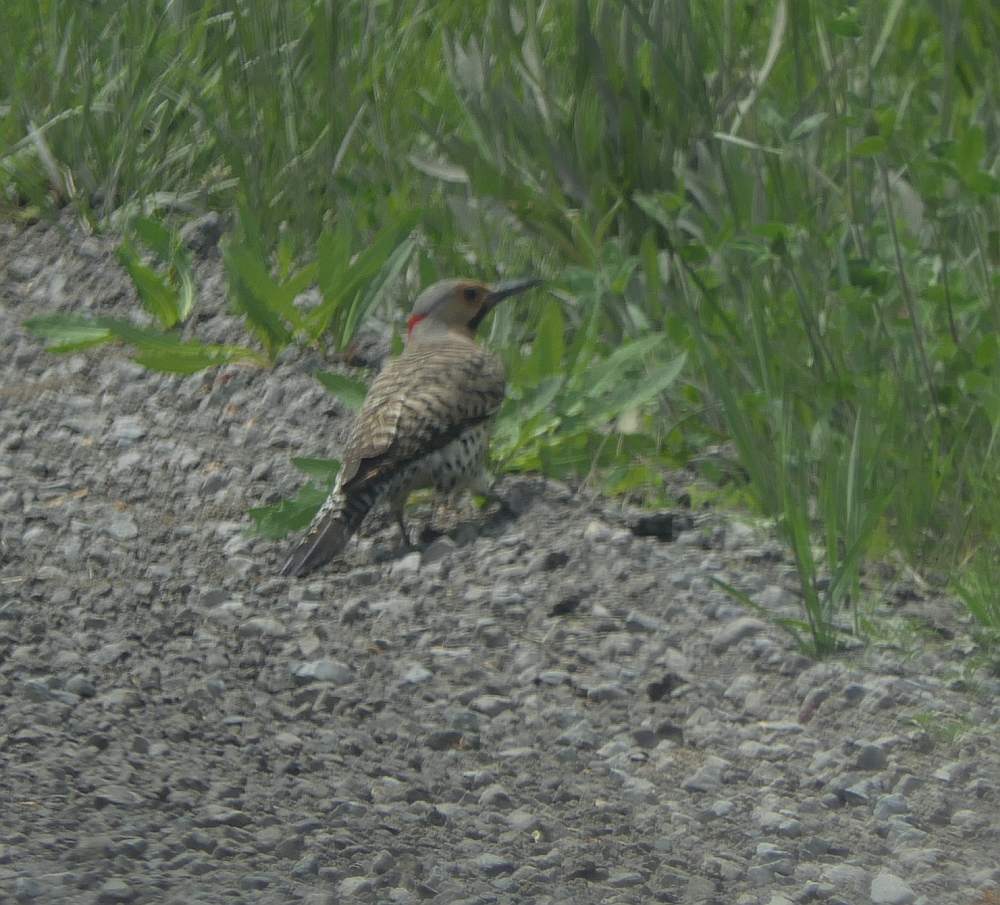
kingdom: Animalia
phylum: Chordata
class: Aves
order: Piciformes
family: Picidae
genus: Colaptes
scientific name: Colaptes auratus
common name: Northern flicker
